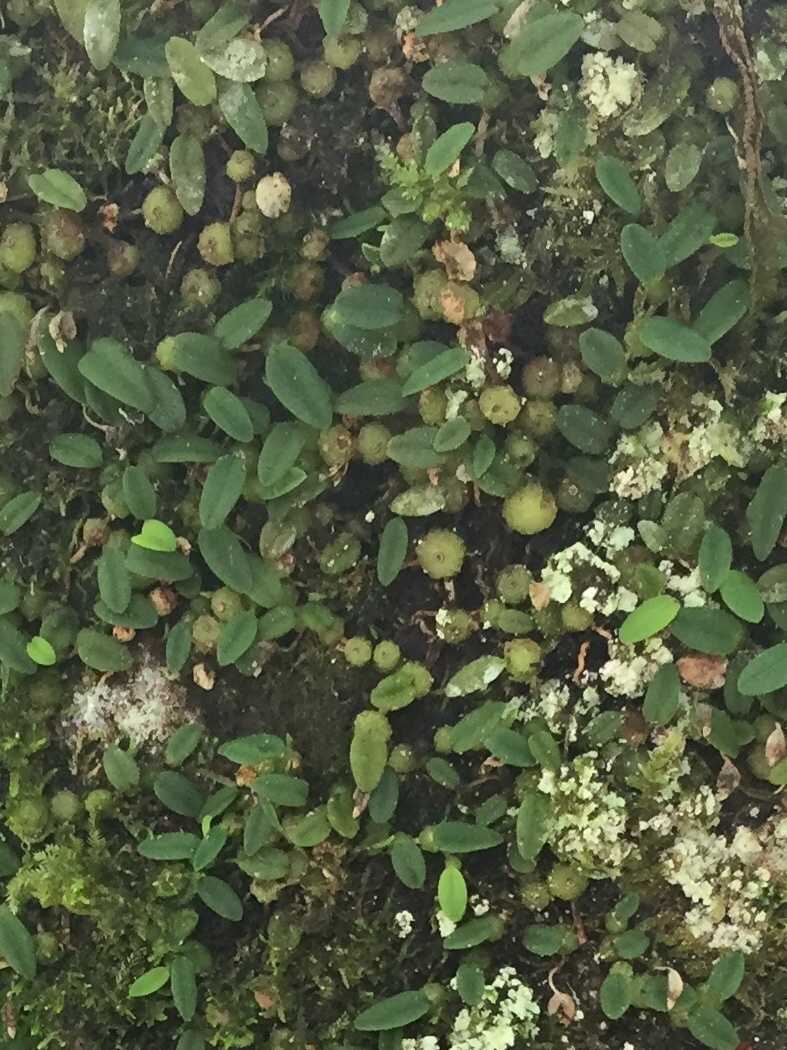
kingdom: Plantae
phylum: Tracheophyta
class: Liliopsida
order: Asparagales
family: Orchidaceae
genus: Bulbophyllum
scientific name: Bulbophyllum pygmaeum
